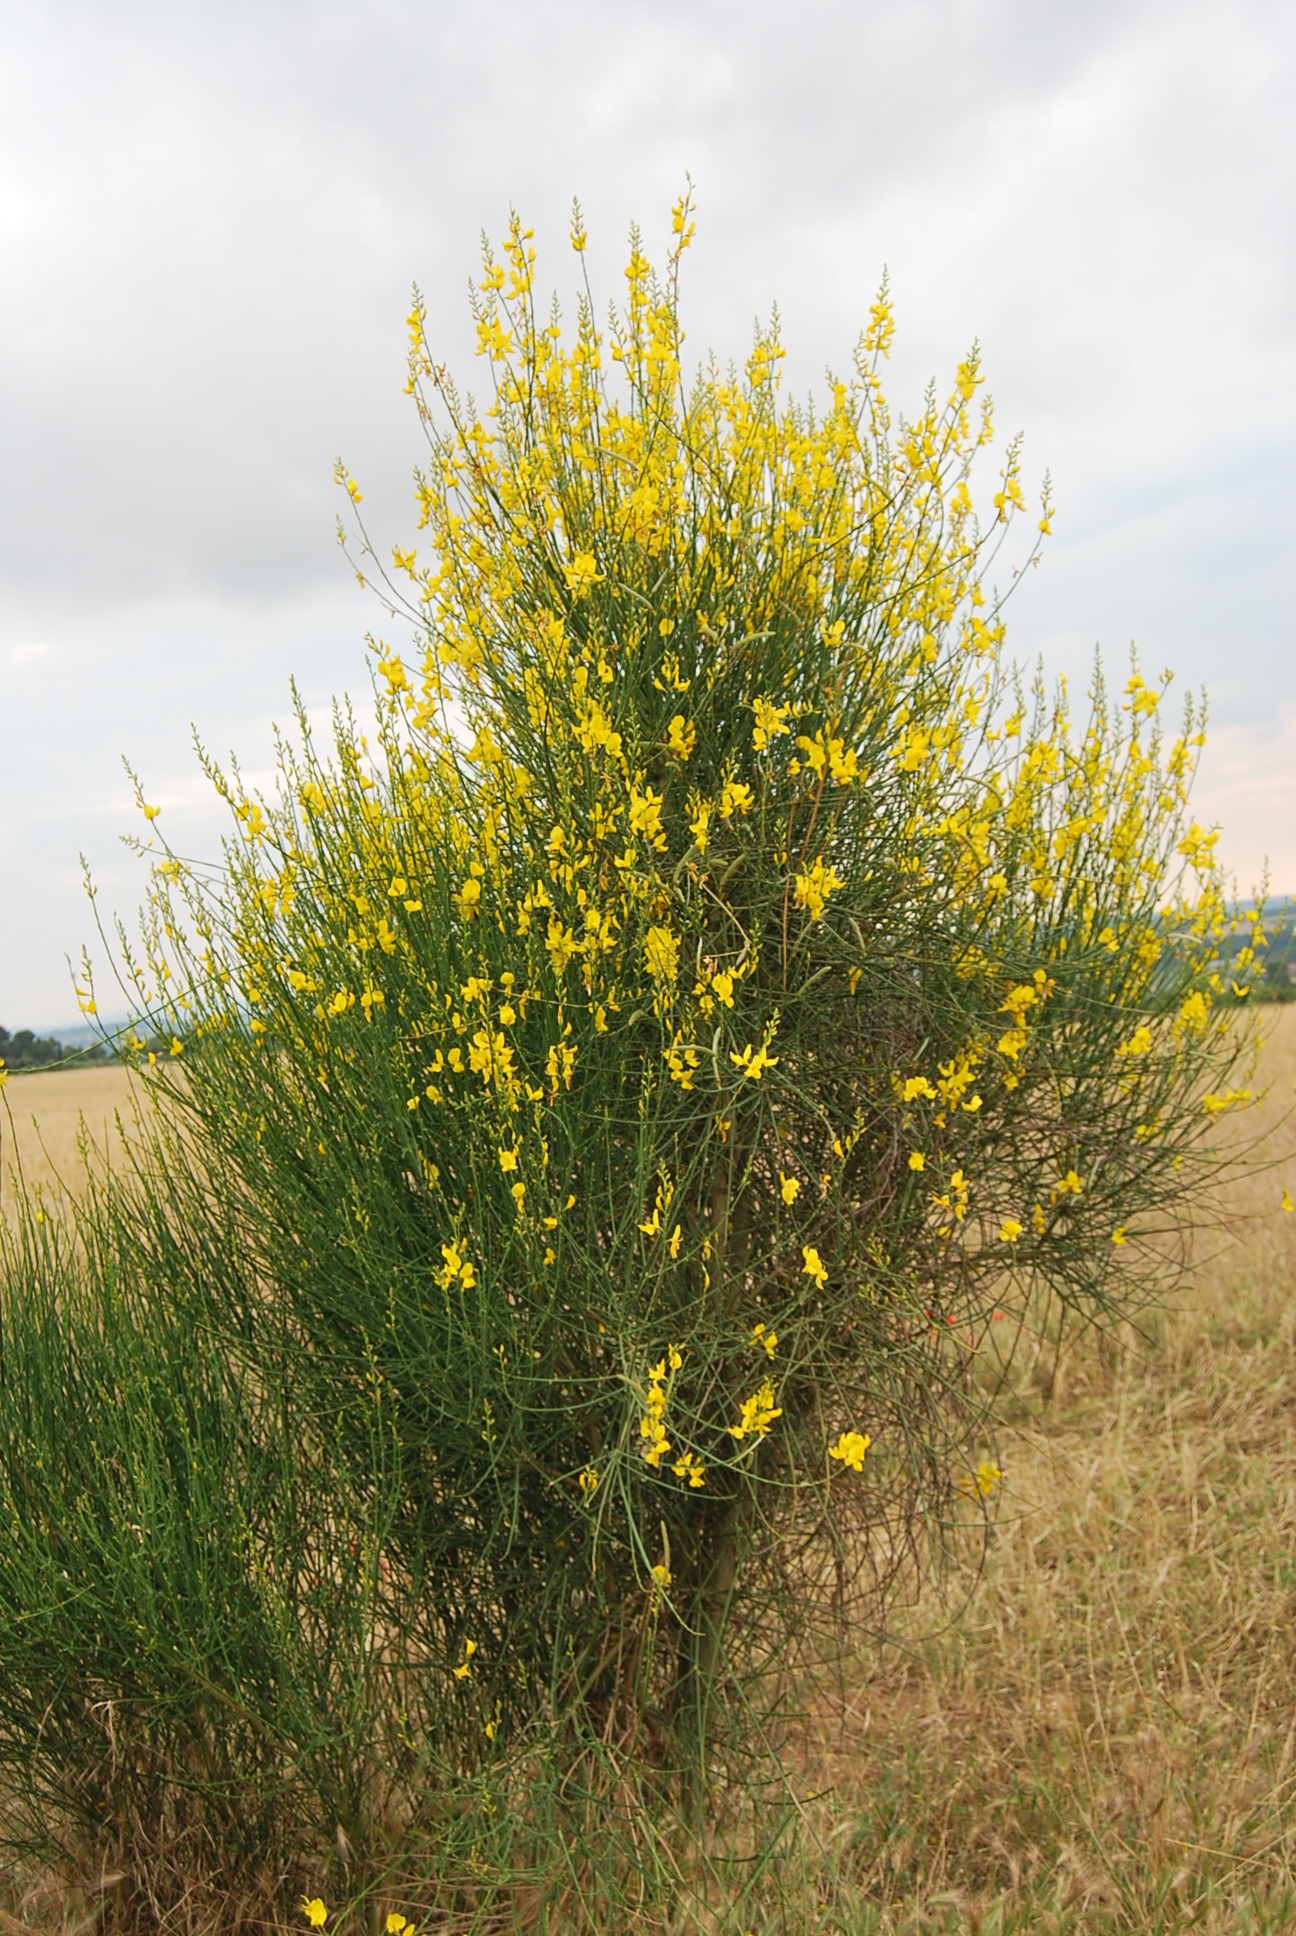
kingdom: Plantae
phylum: Tracheophyta
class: Magnoliopsida
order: Fabales
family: Fabaceae
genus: Spartium
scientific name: Spartium junceum
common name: Spanish broom
